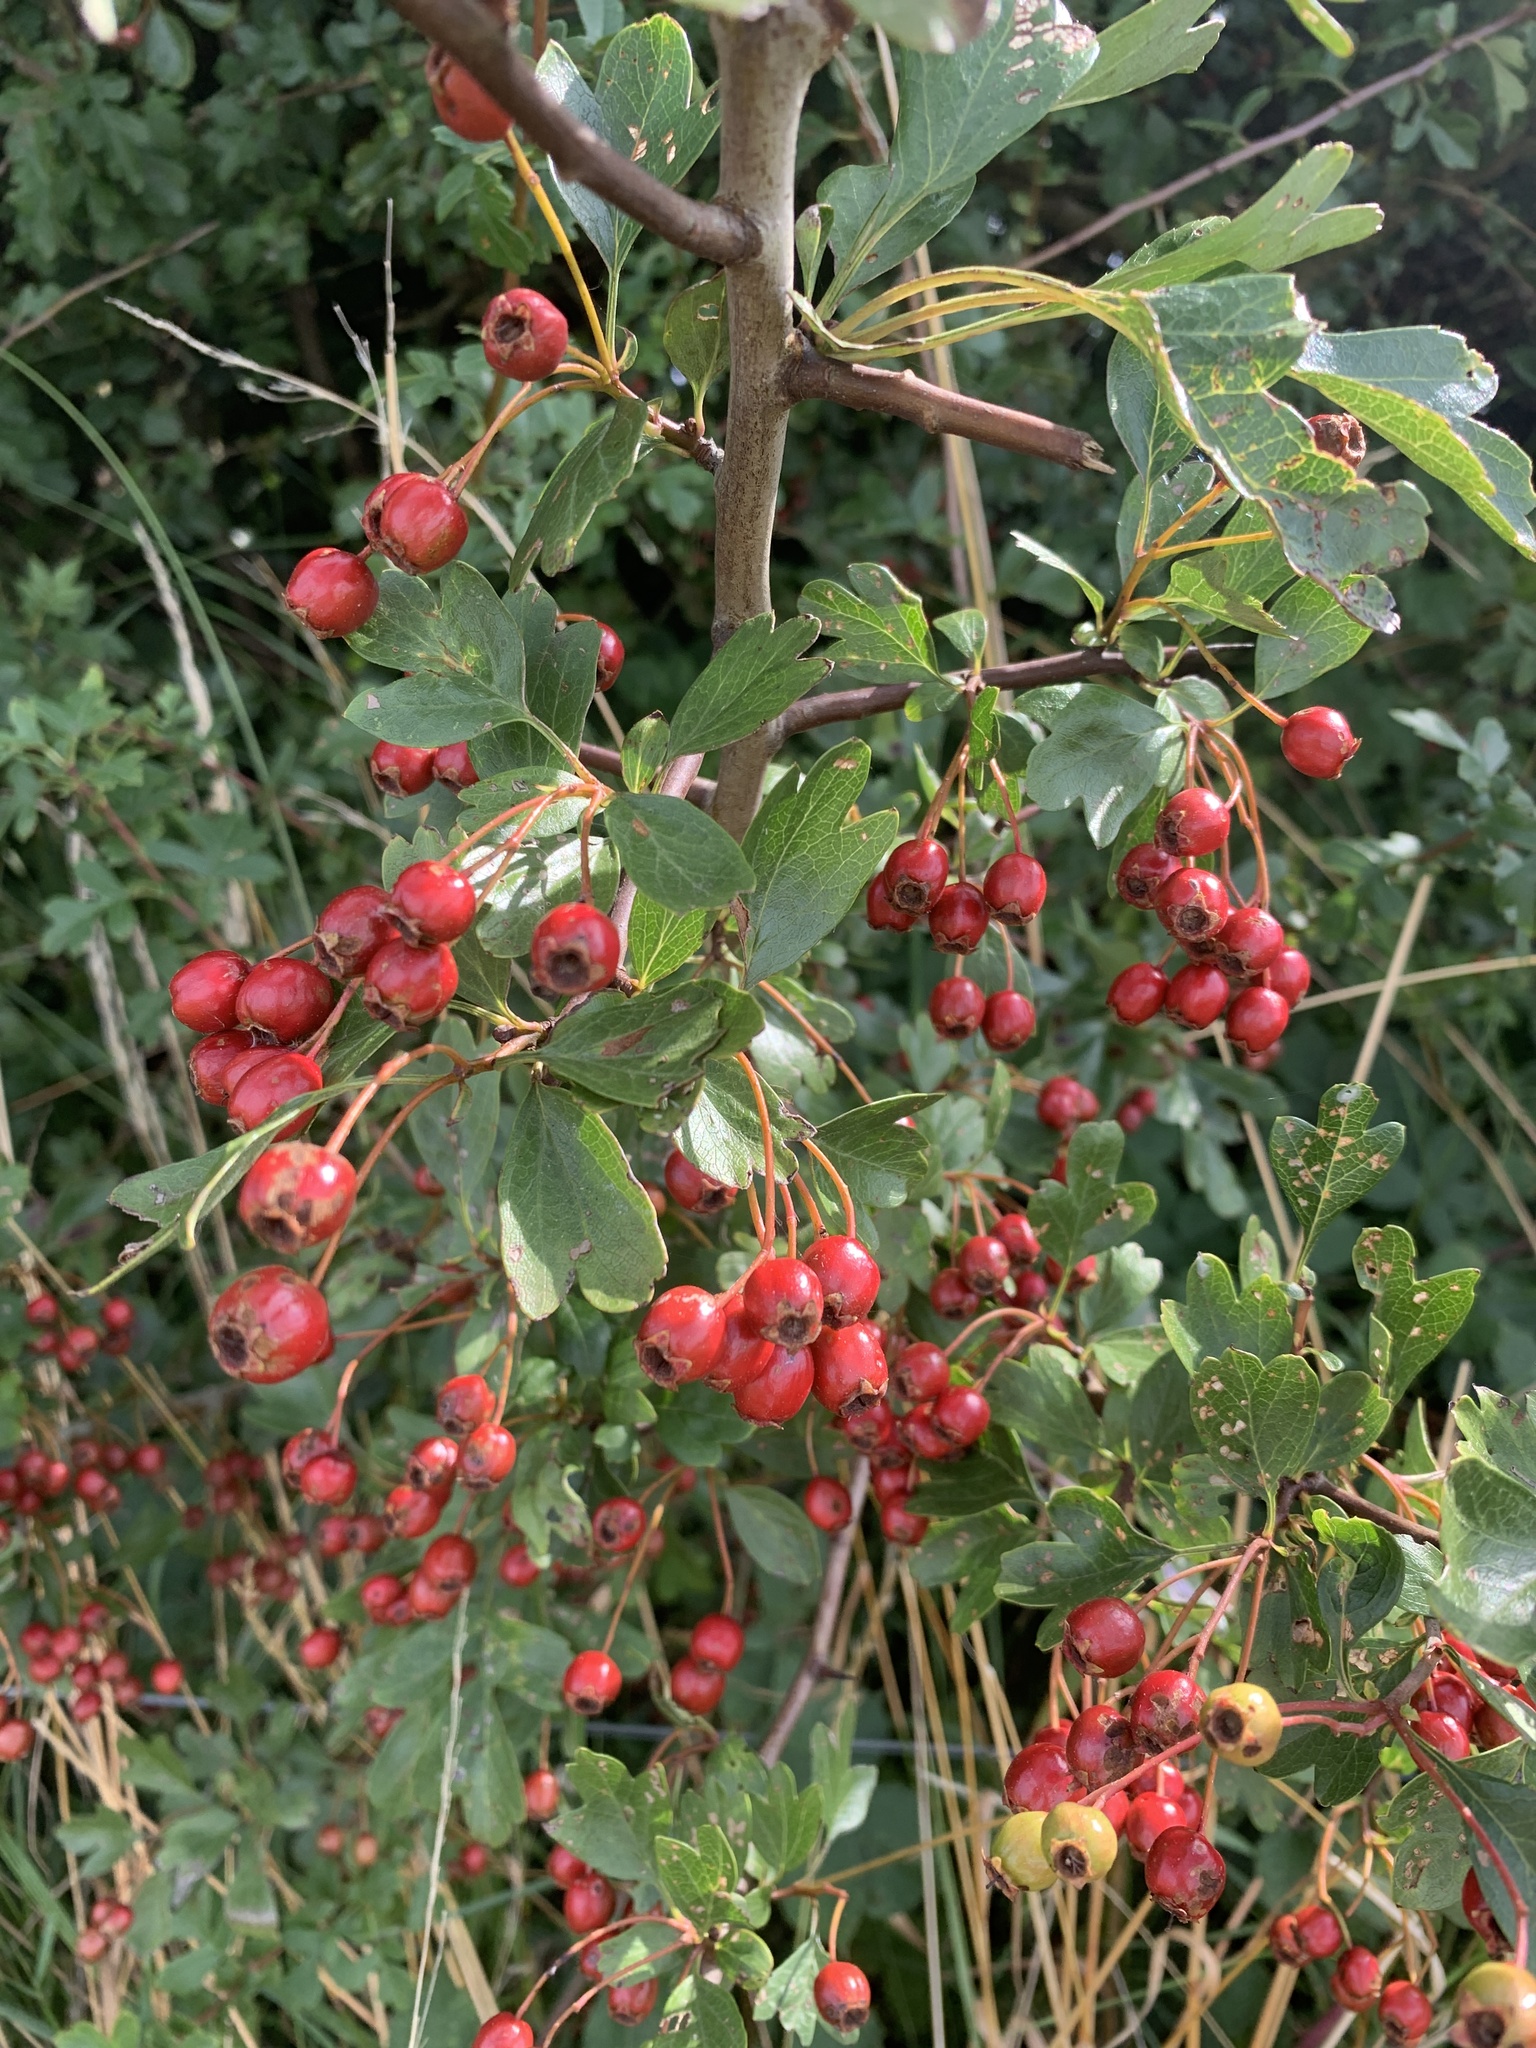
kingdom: Plantae
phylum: Tracheophyta
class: Magnoliopsida
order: Rosales
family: Rosaceae
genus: Crataegus
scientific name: Crataegus monogyna
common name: Hawthorn
